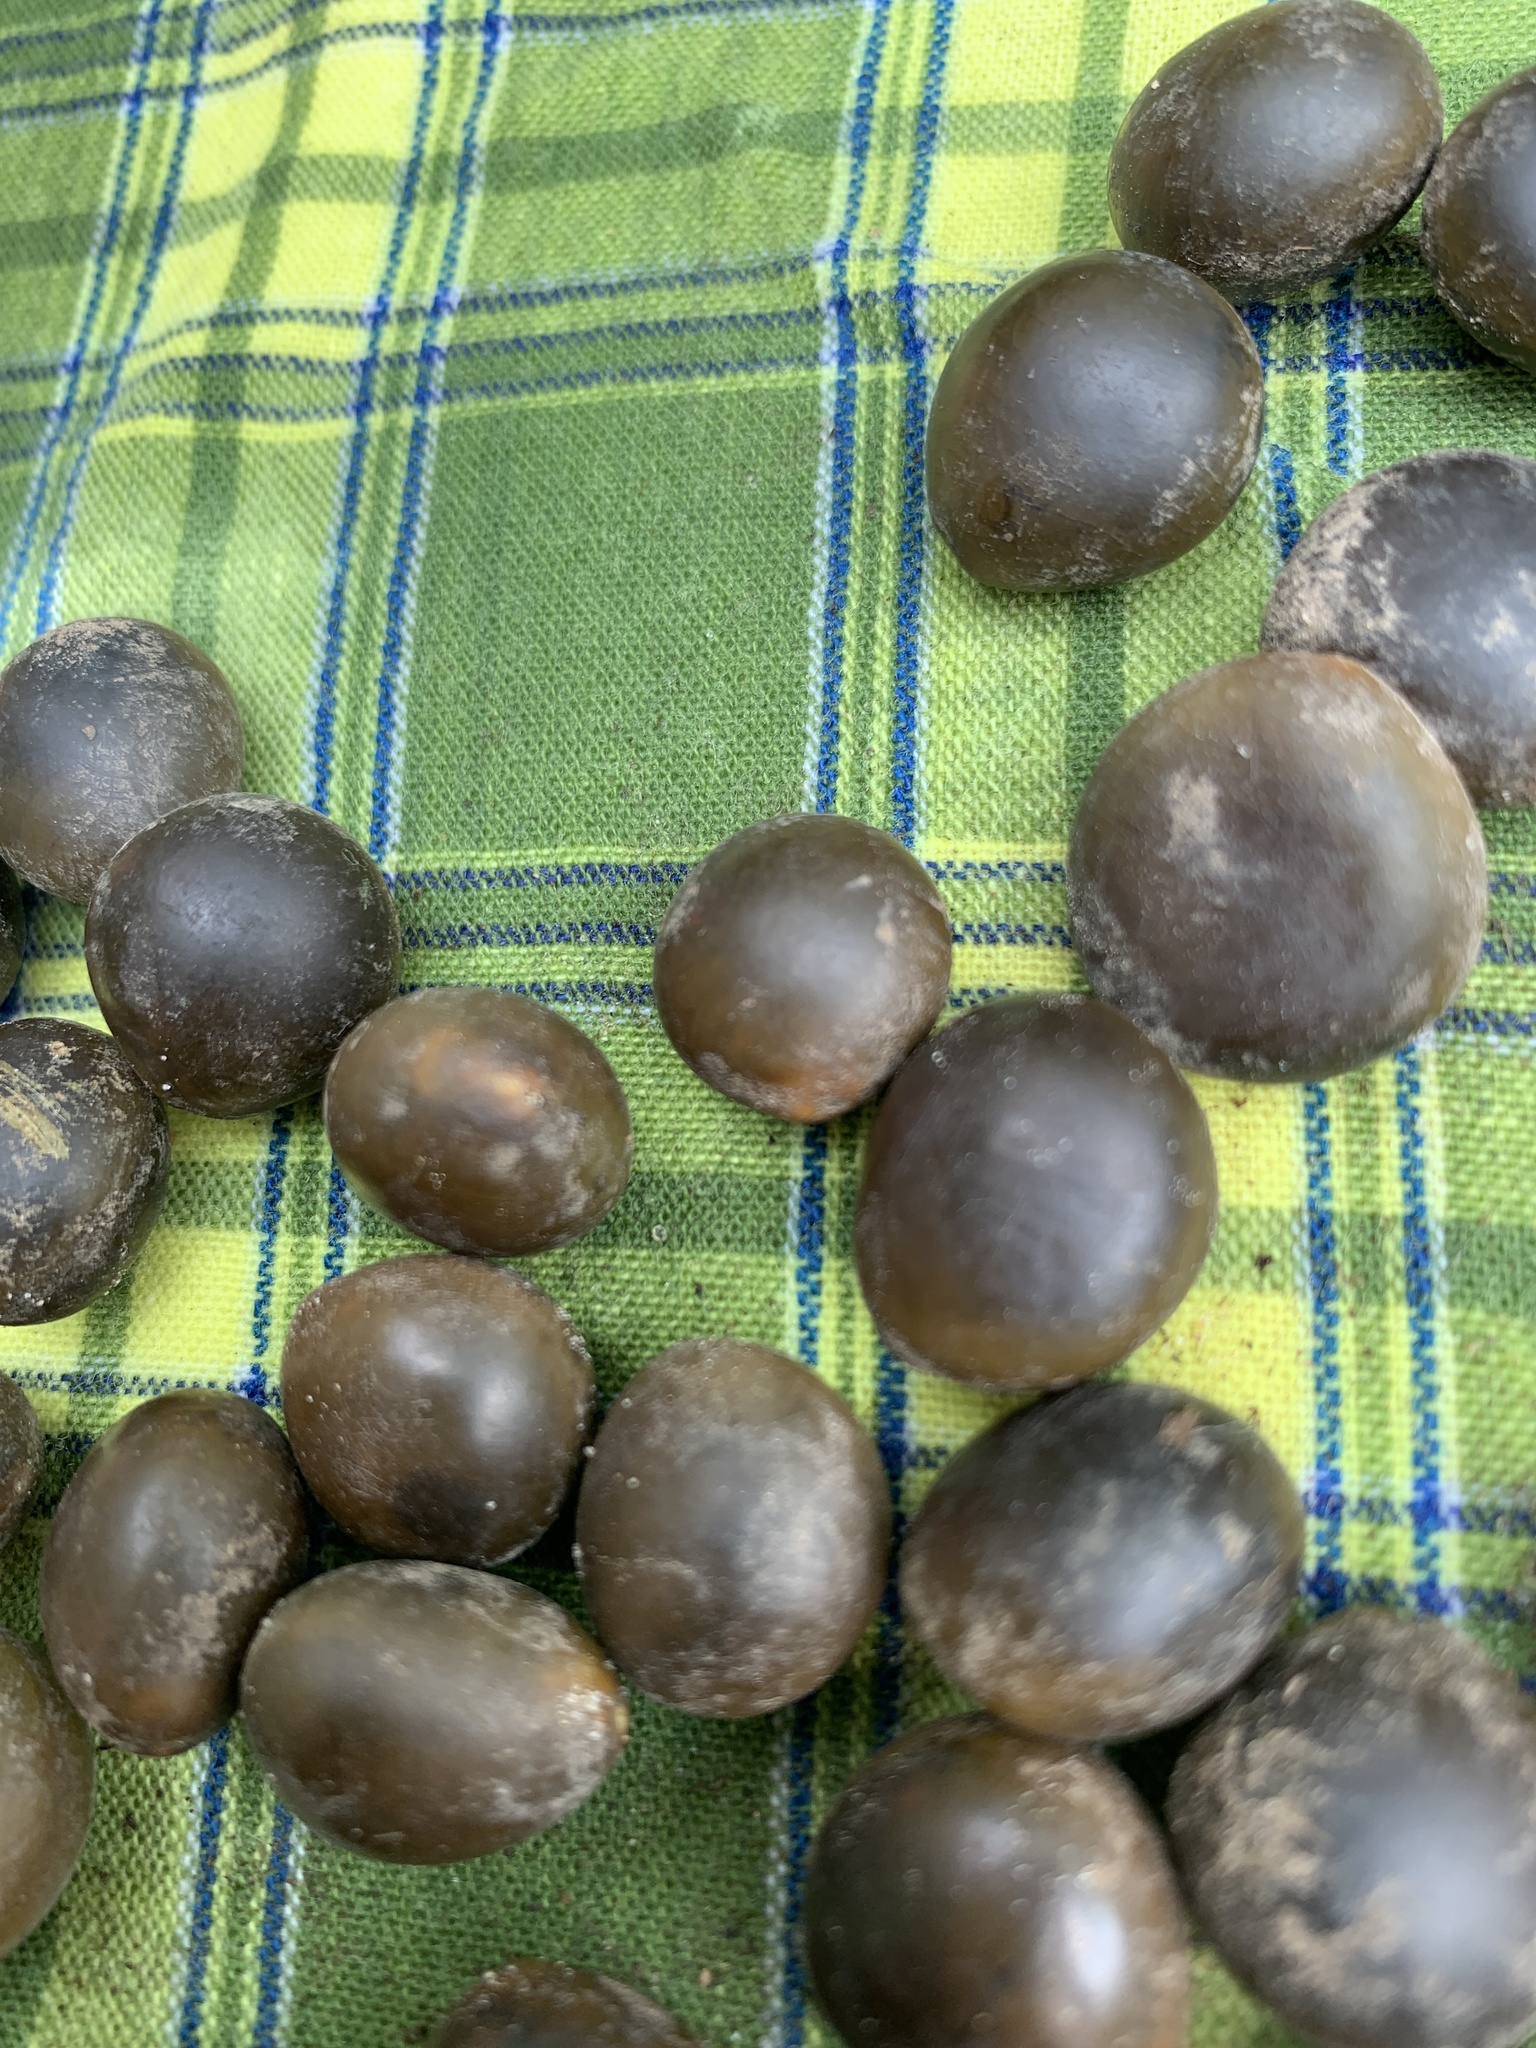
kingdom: Plantae
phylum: Tracheophyta
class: Magnoliopsida
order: Fabales
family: Fabaceae
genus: Gymnocladus
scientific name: Gymnocladus dioicus
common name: Kentucky coffee-tree
